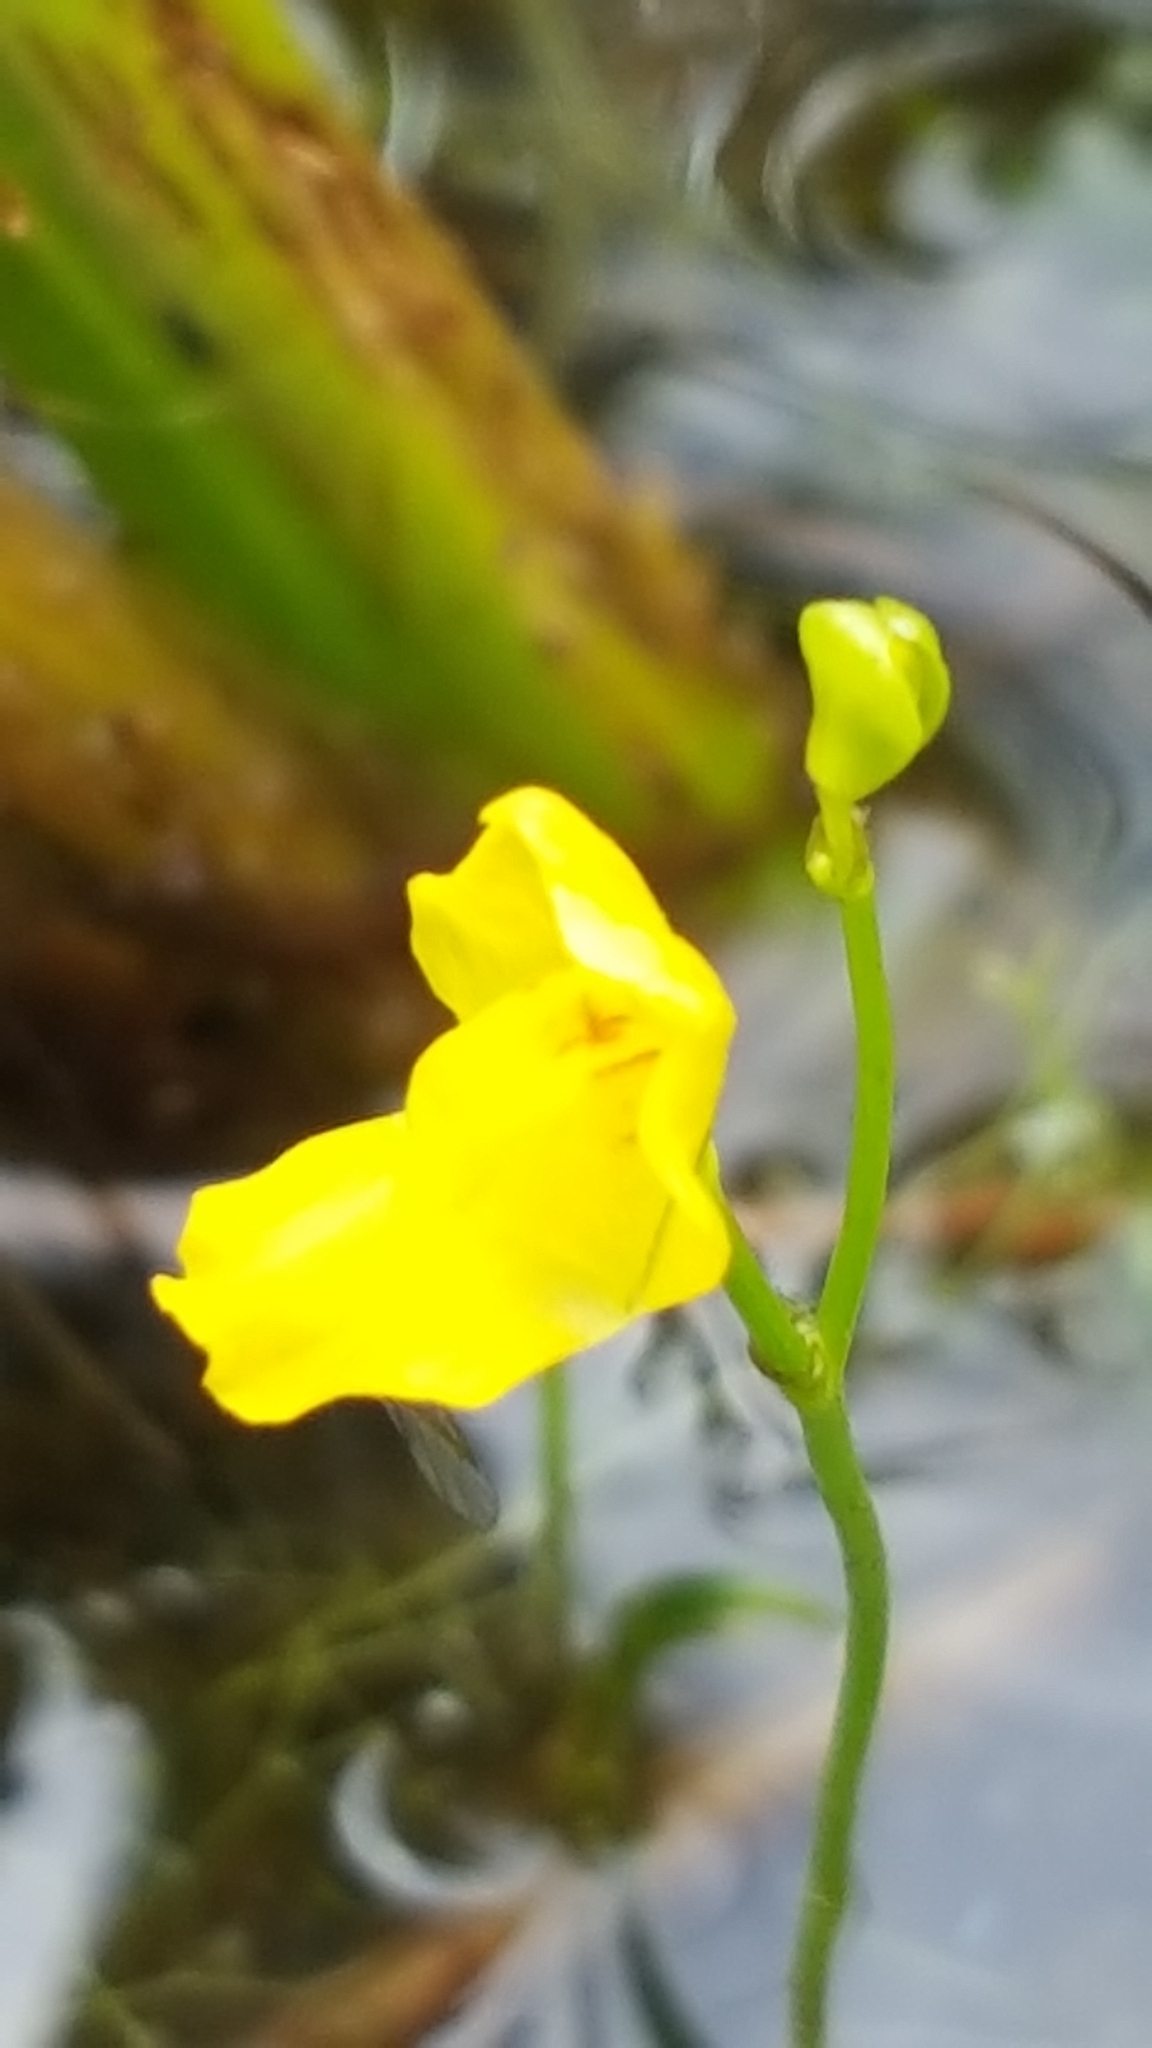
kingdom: Plantae
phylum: Tracheophyta
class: Magnoliopsida
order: Lamiales
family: Lentibulariaceae
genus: Utricularia
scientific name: Utricularia gibba
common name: Humped bladderwort
